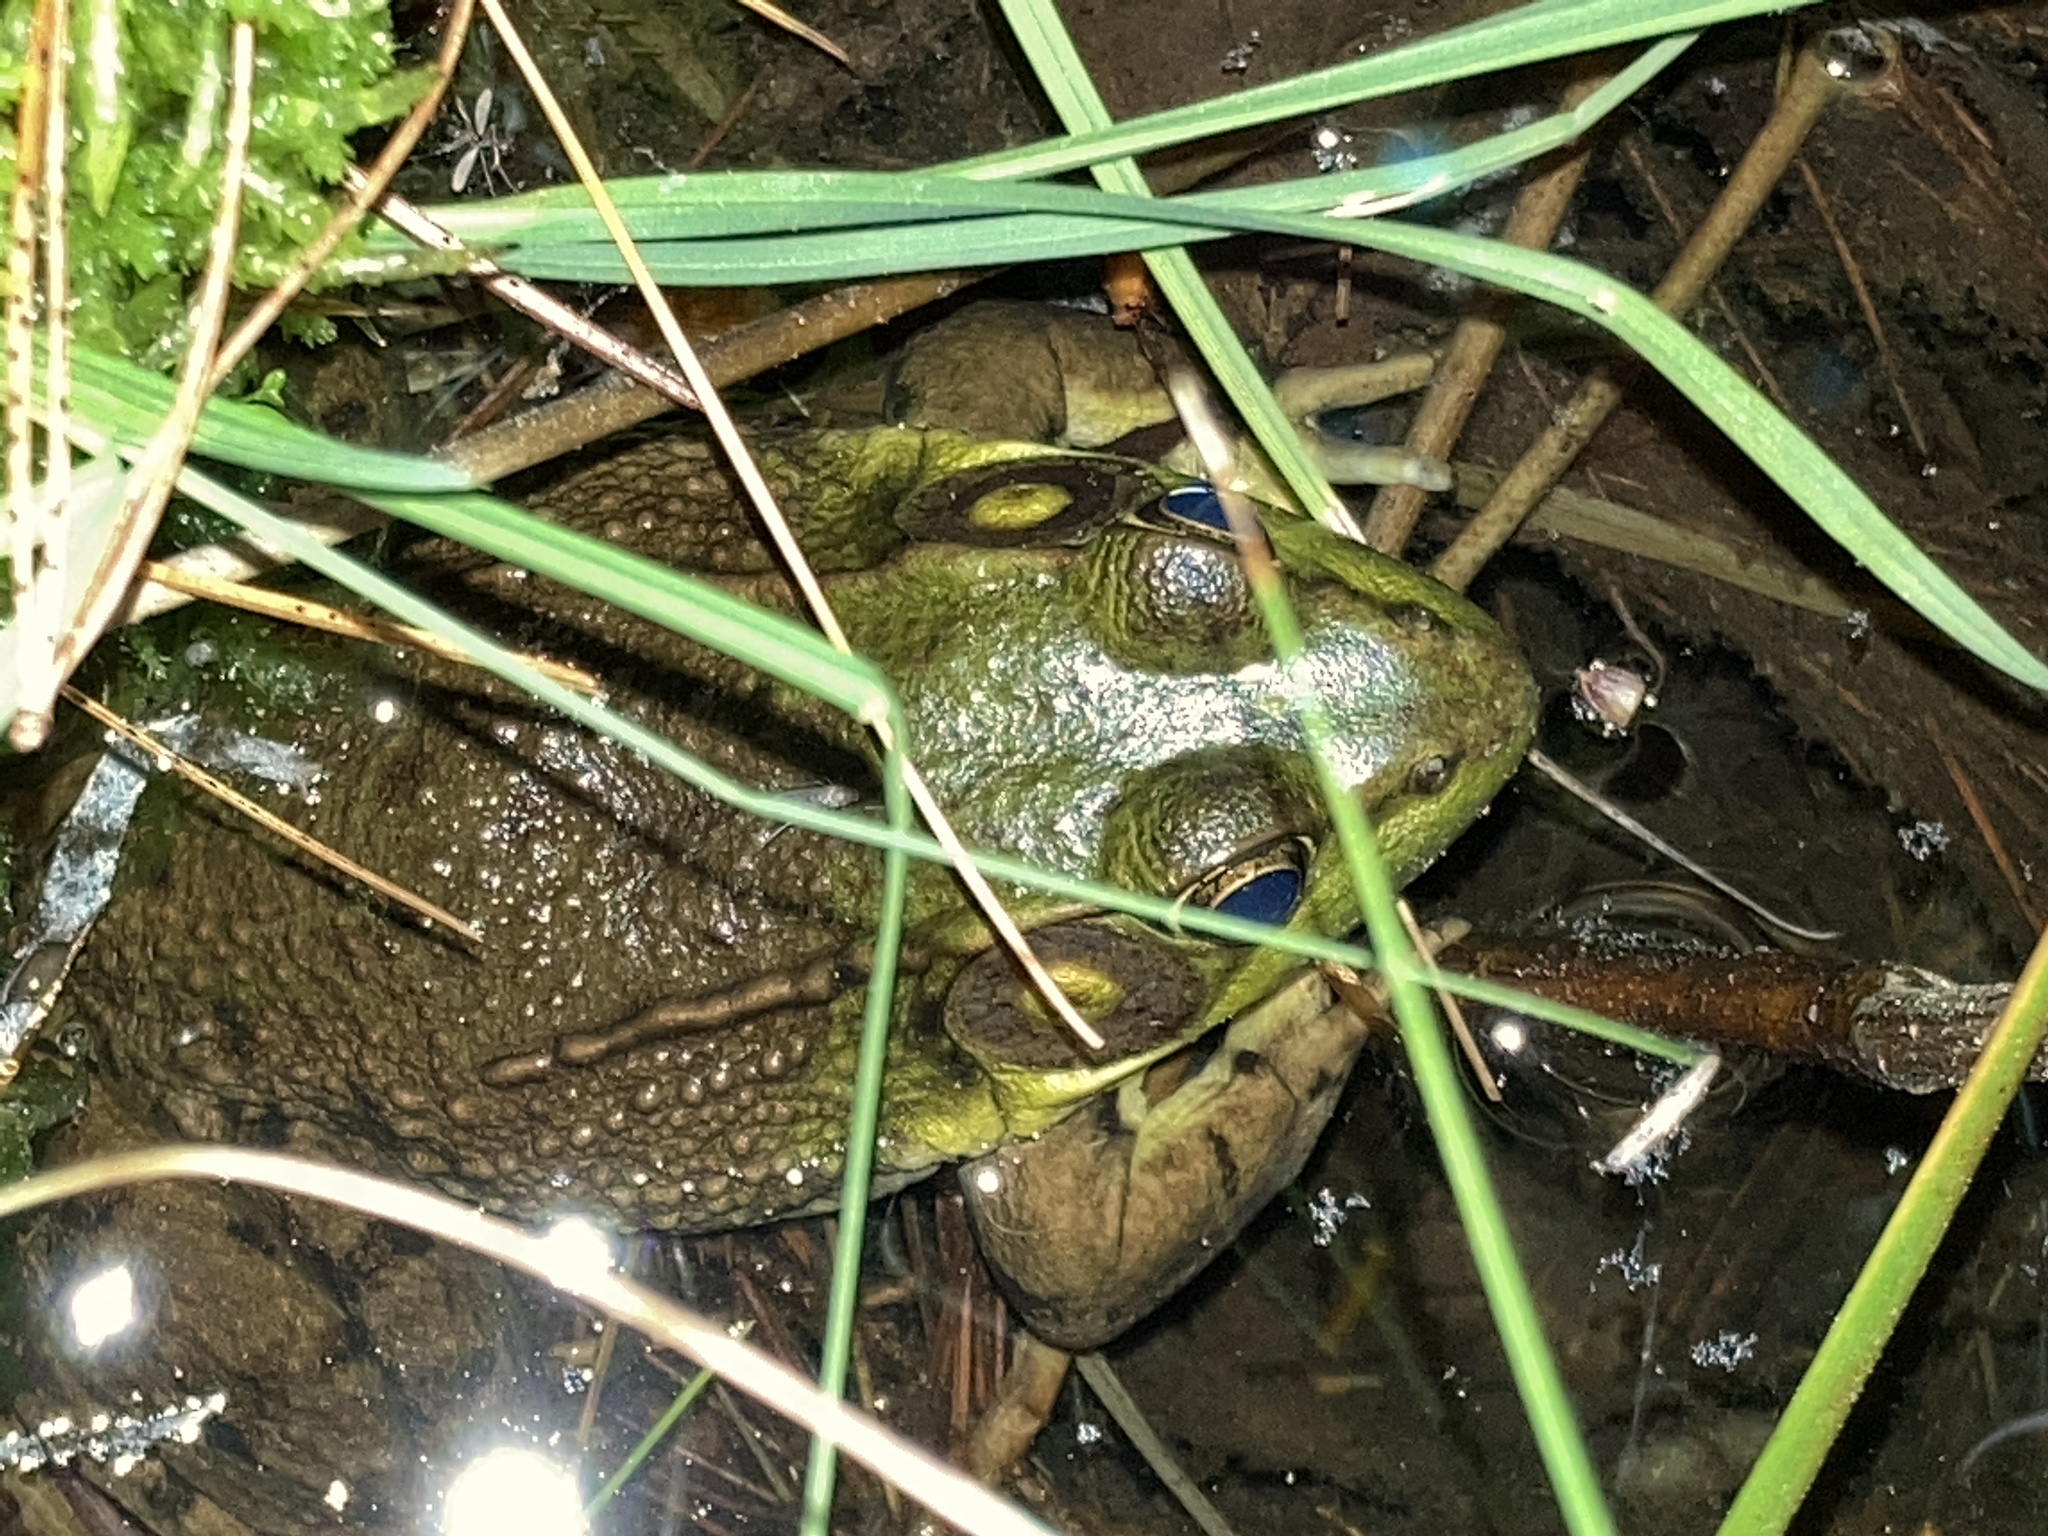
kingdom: Animalia
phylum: Chordata
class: Amphibia
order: Anura
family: Ranidae
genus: Lithobates
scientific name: Lithobates clamitans
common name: Green frog
